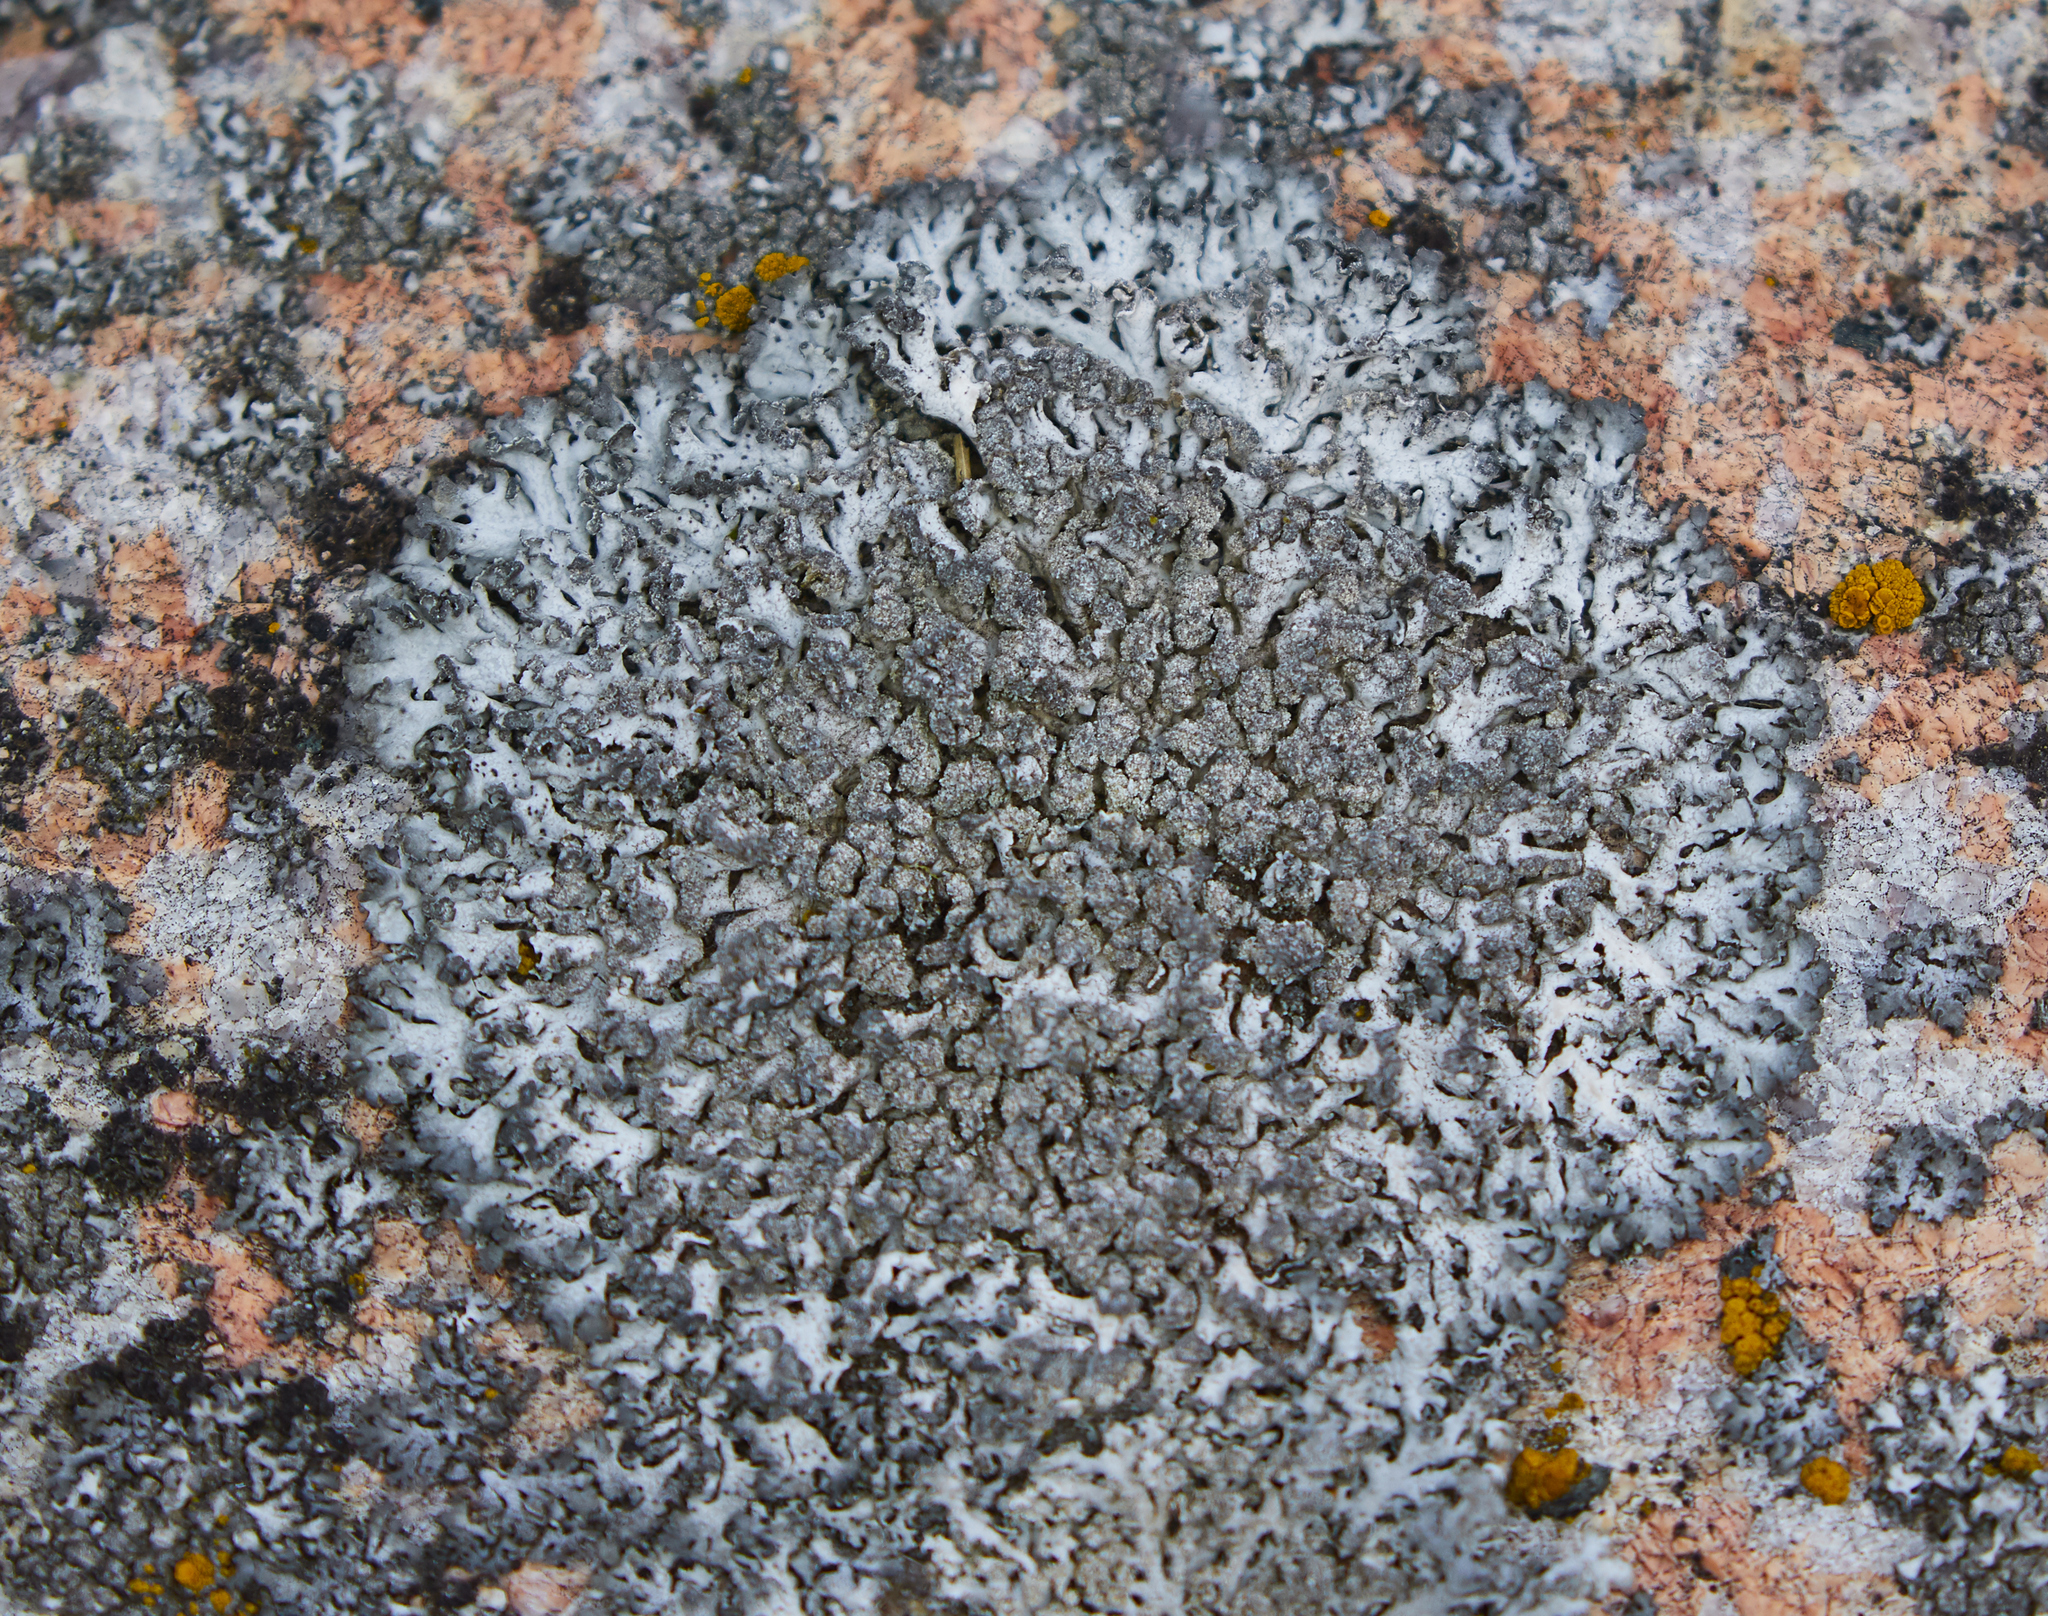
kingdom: Fungi
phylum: Ascomycota
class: Lecanoromycetes
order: Caliciales
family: Physciaceae
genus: Physcia
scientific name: Physcia caesia
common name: Blue-gray rosette lichen
